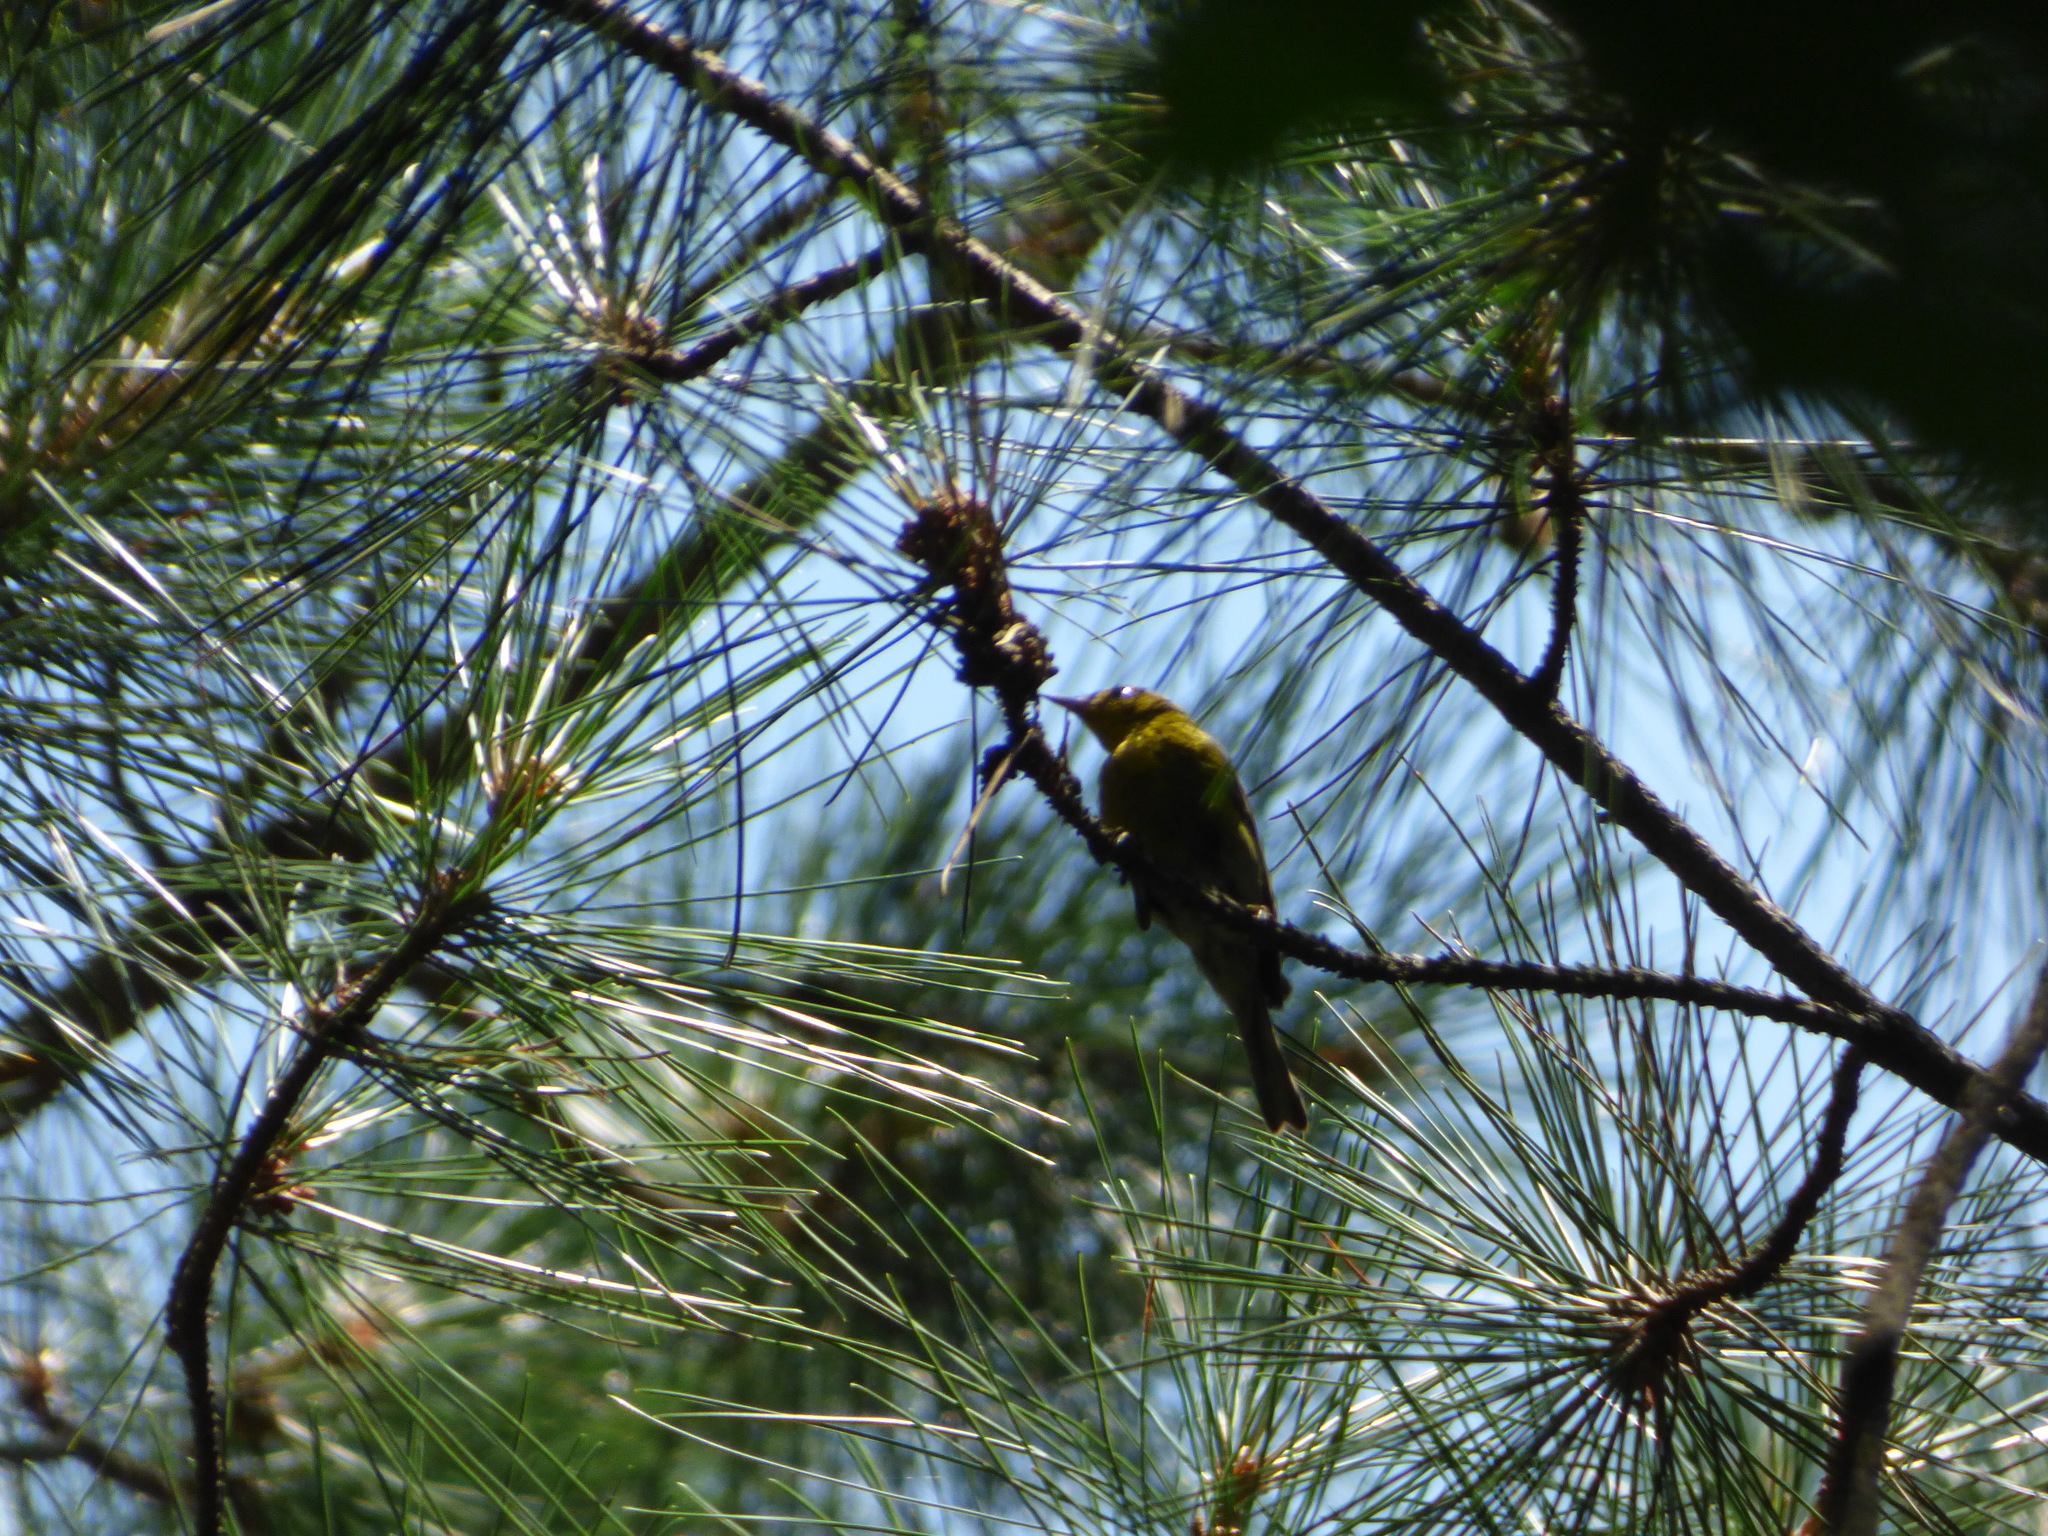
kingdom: Animalia
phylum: Chordata
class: Aves
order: Passeriformes
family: Parulidae
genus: Setophaga
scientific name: Setophaga pinus
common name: Pine warbler
